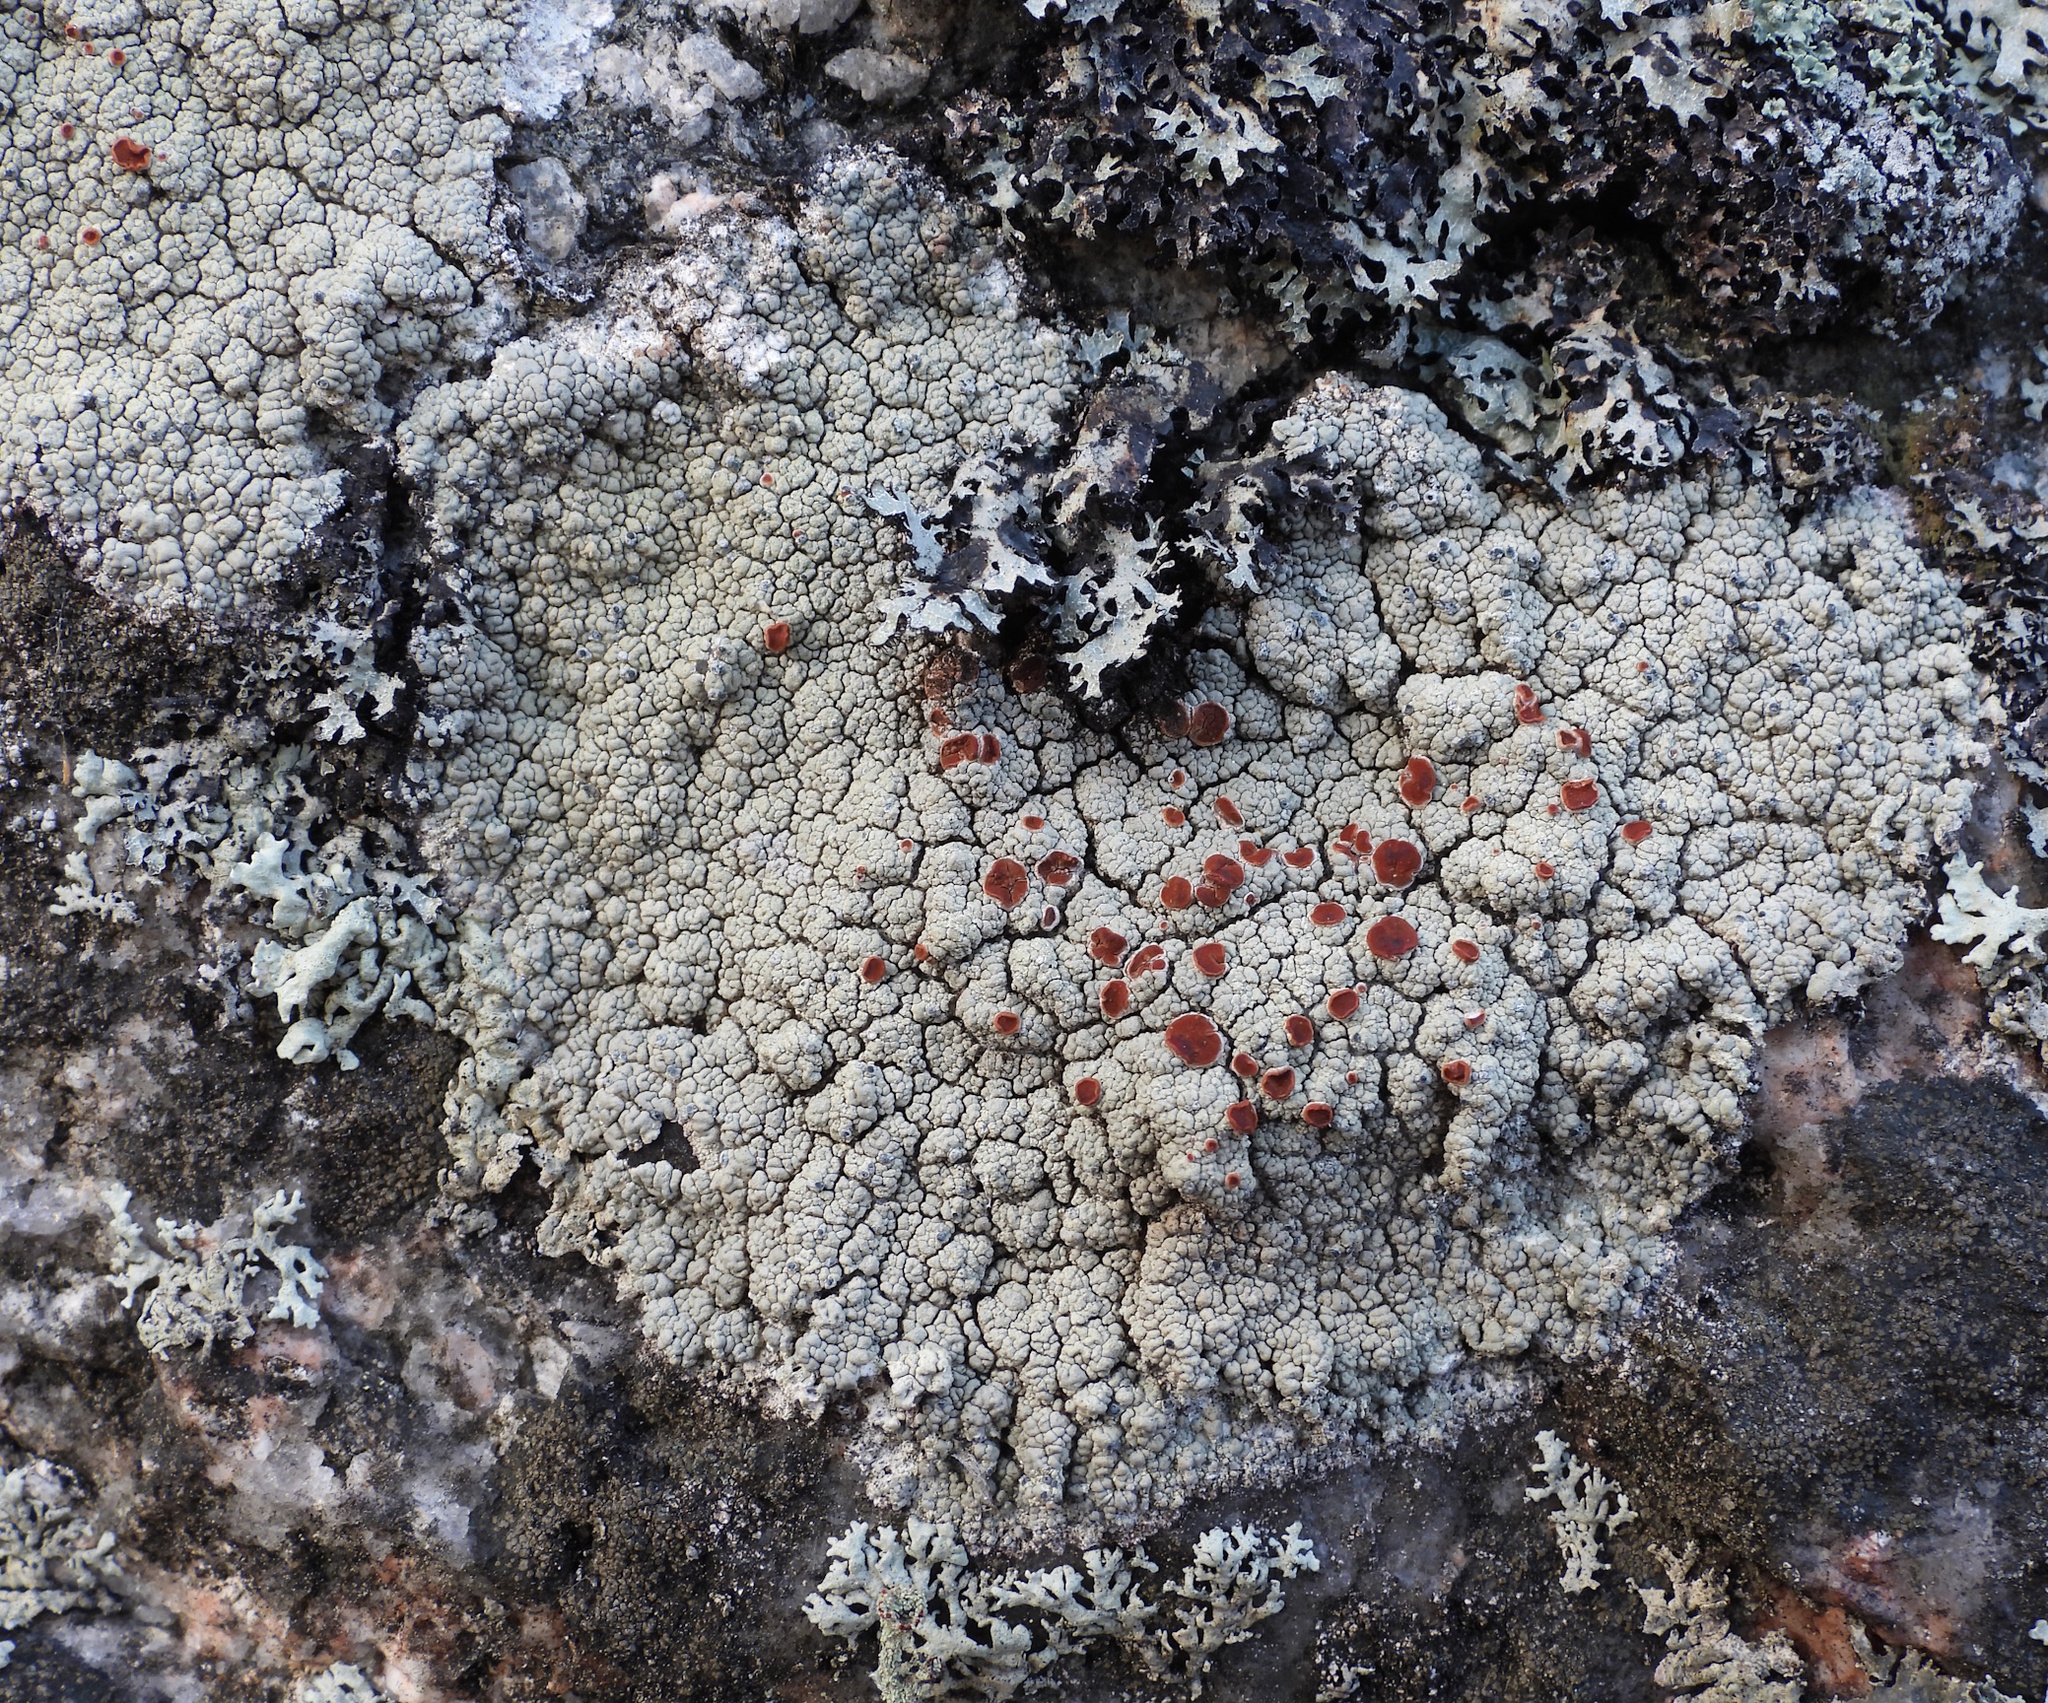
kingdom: Fungi
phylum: Ascomycota
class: Lecanoromycetes
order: Umbilicariales
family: Ophioparmaceae
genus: Ophioparma
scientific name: Ophioparma ventosa
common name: Blood-spot
